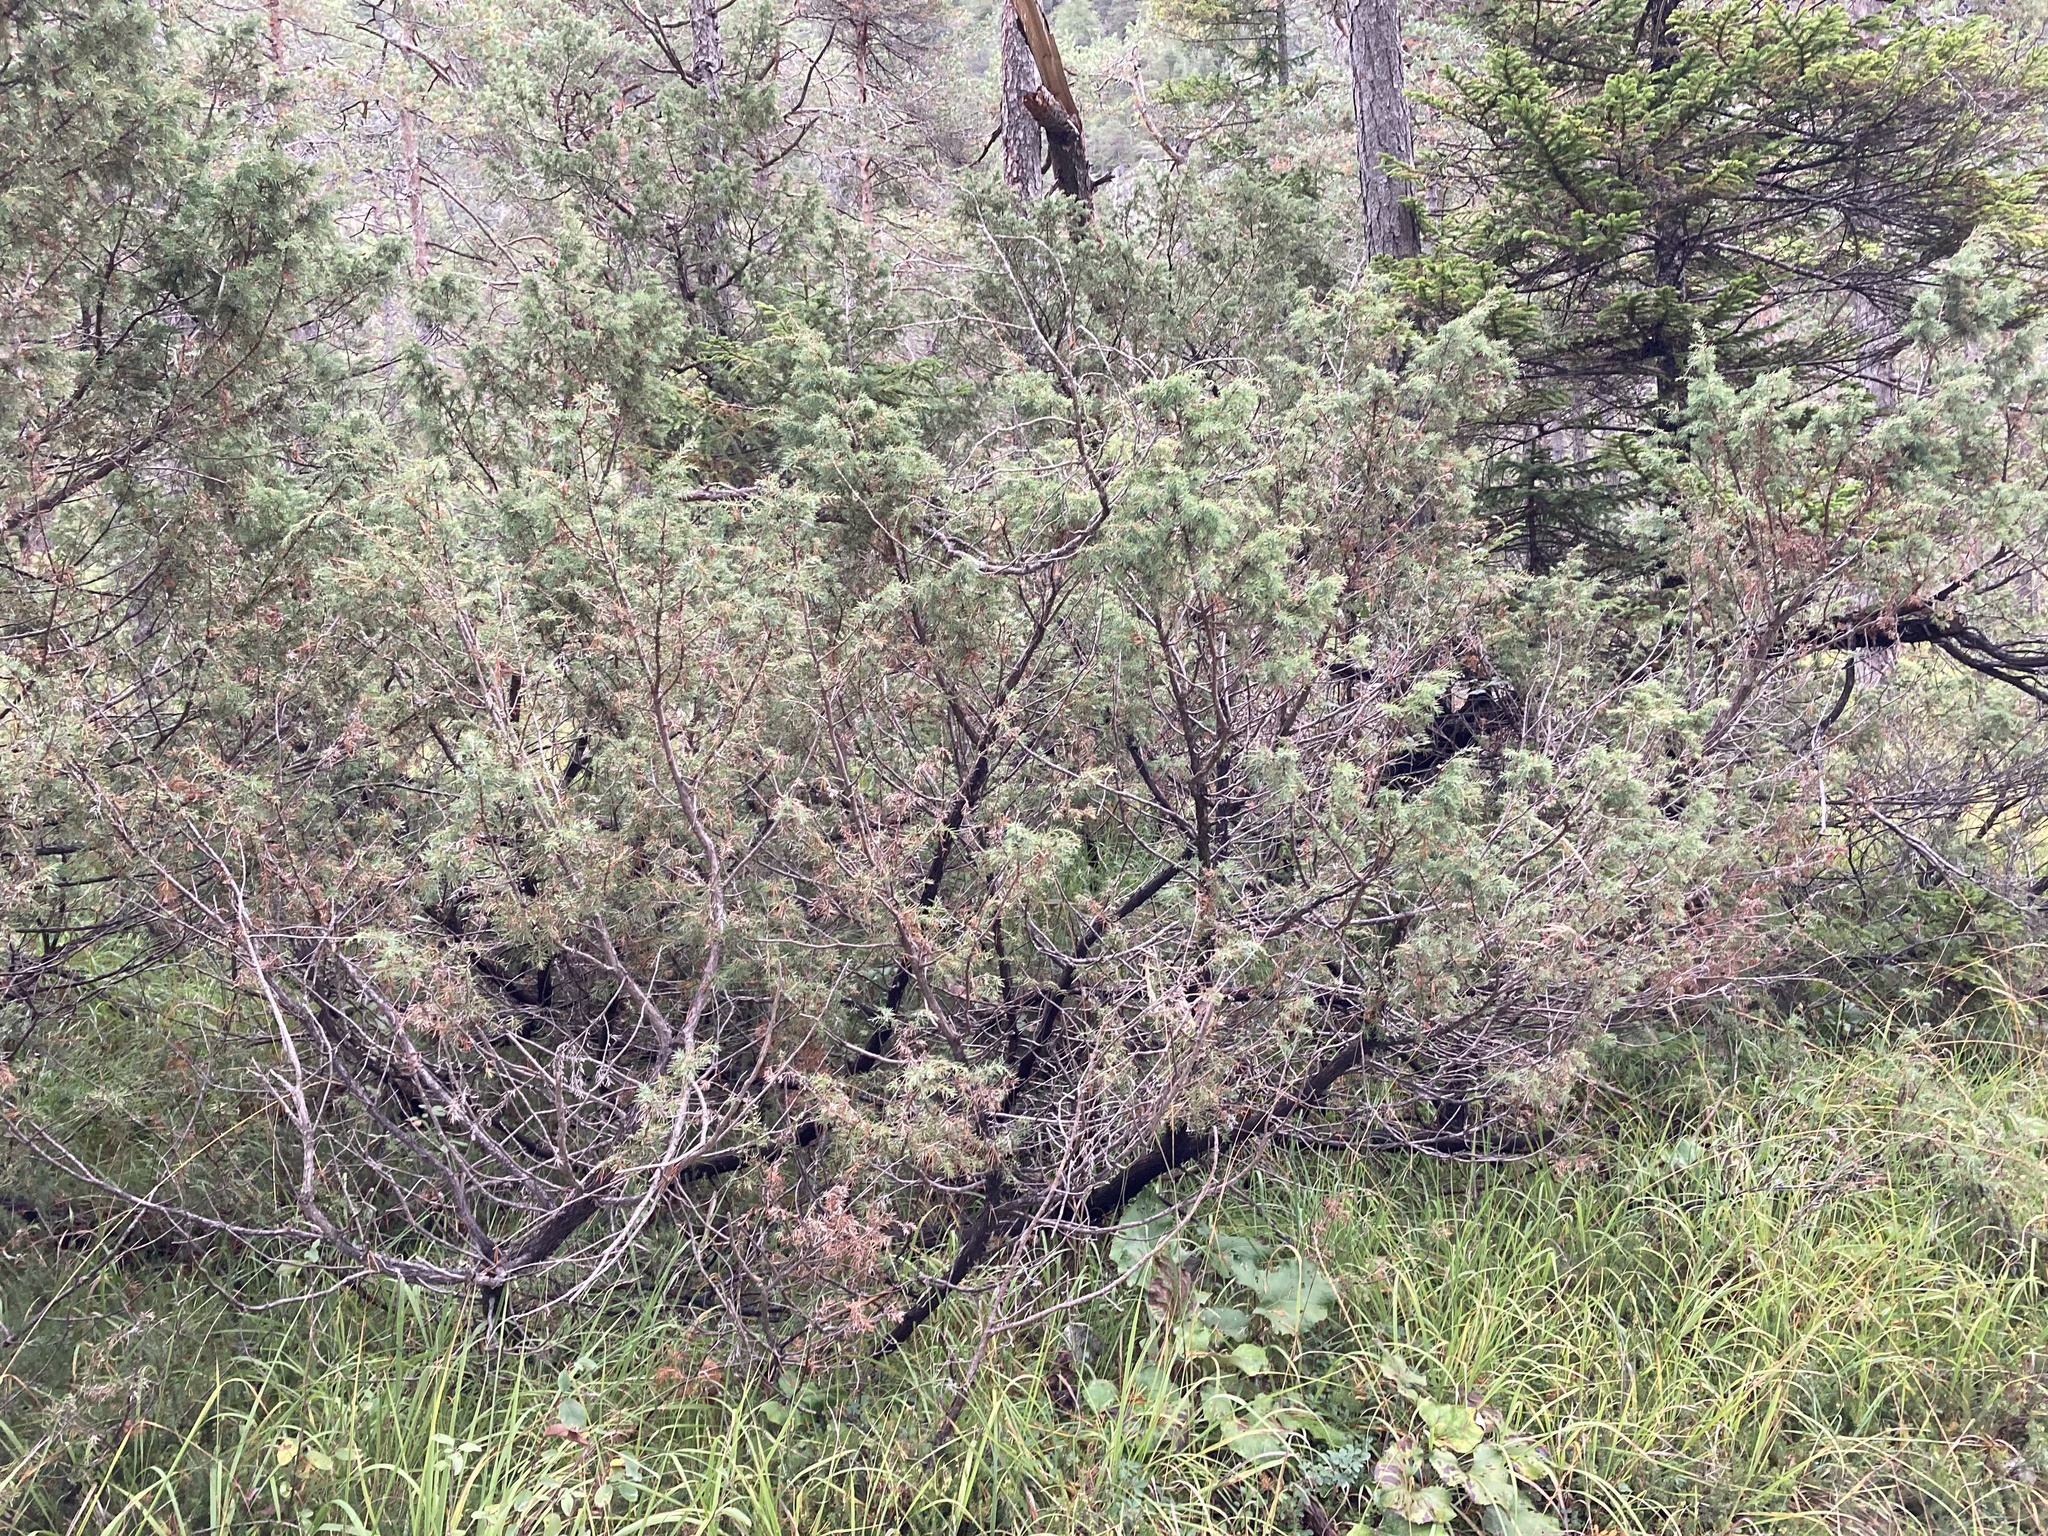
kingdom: Plantae
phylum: Tracheophyta
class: Pinopsida
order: Pinales
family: Cupressaceae
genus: Juniperus
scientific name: Juniperus communis
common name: Common juniper
